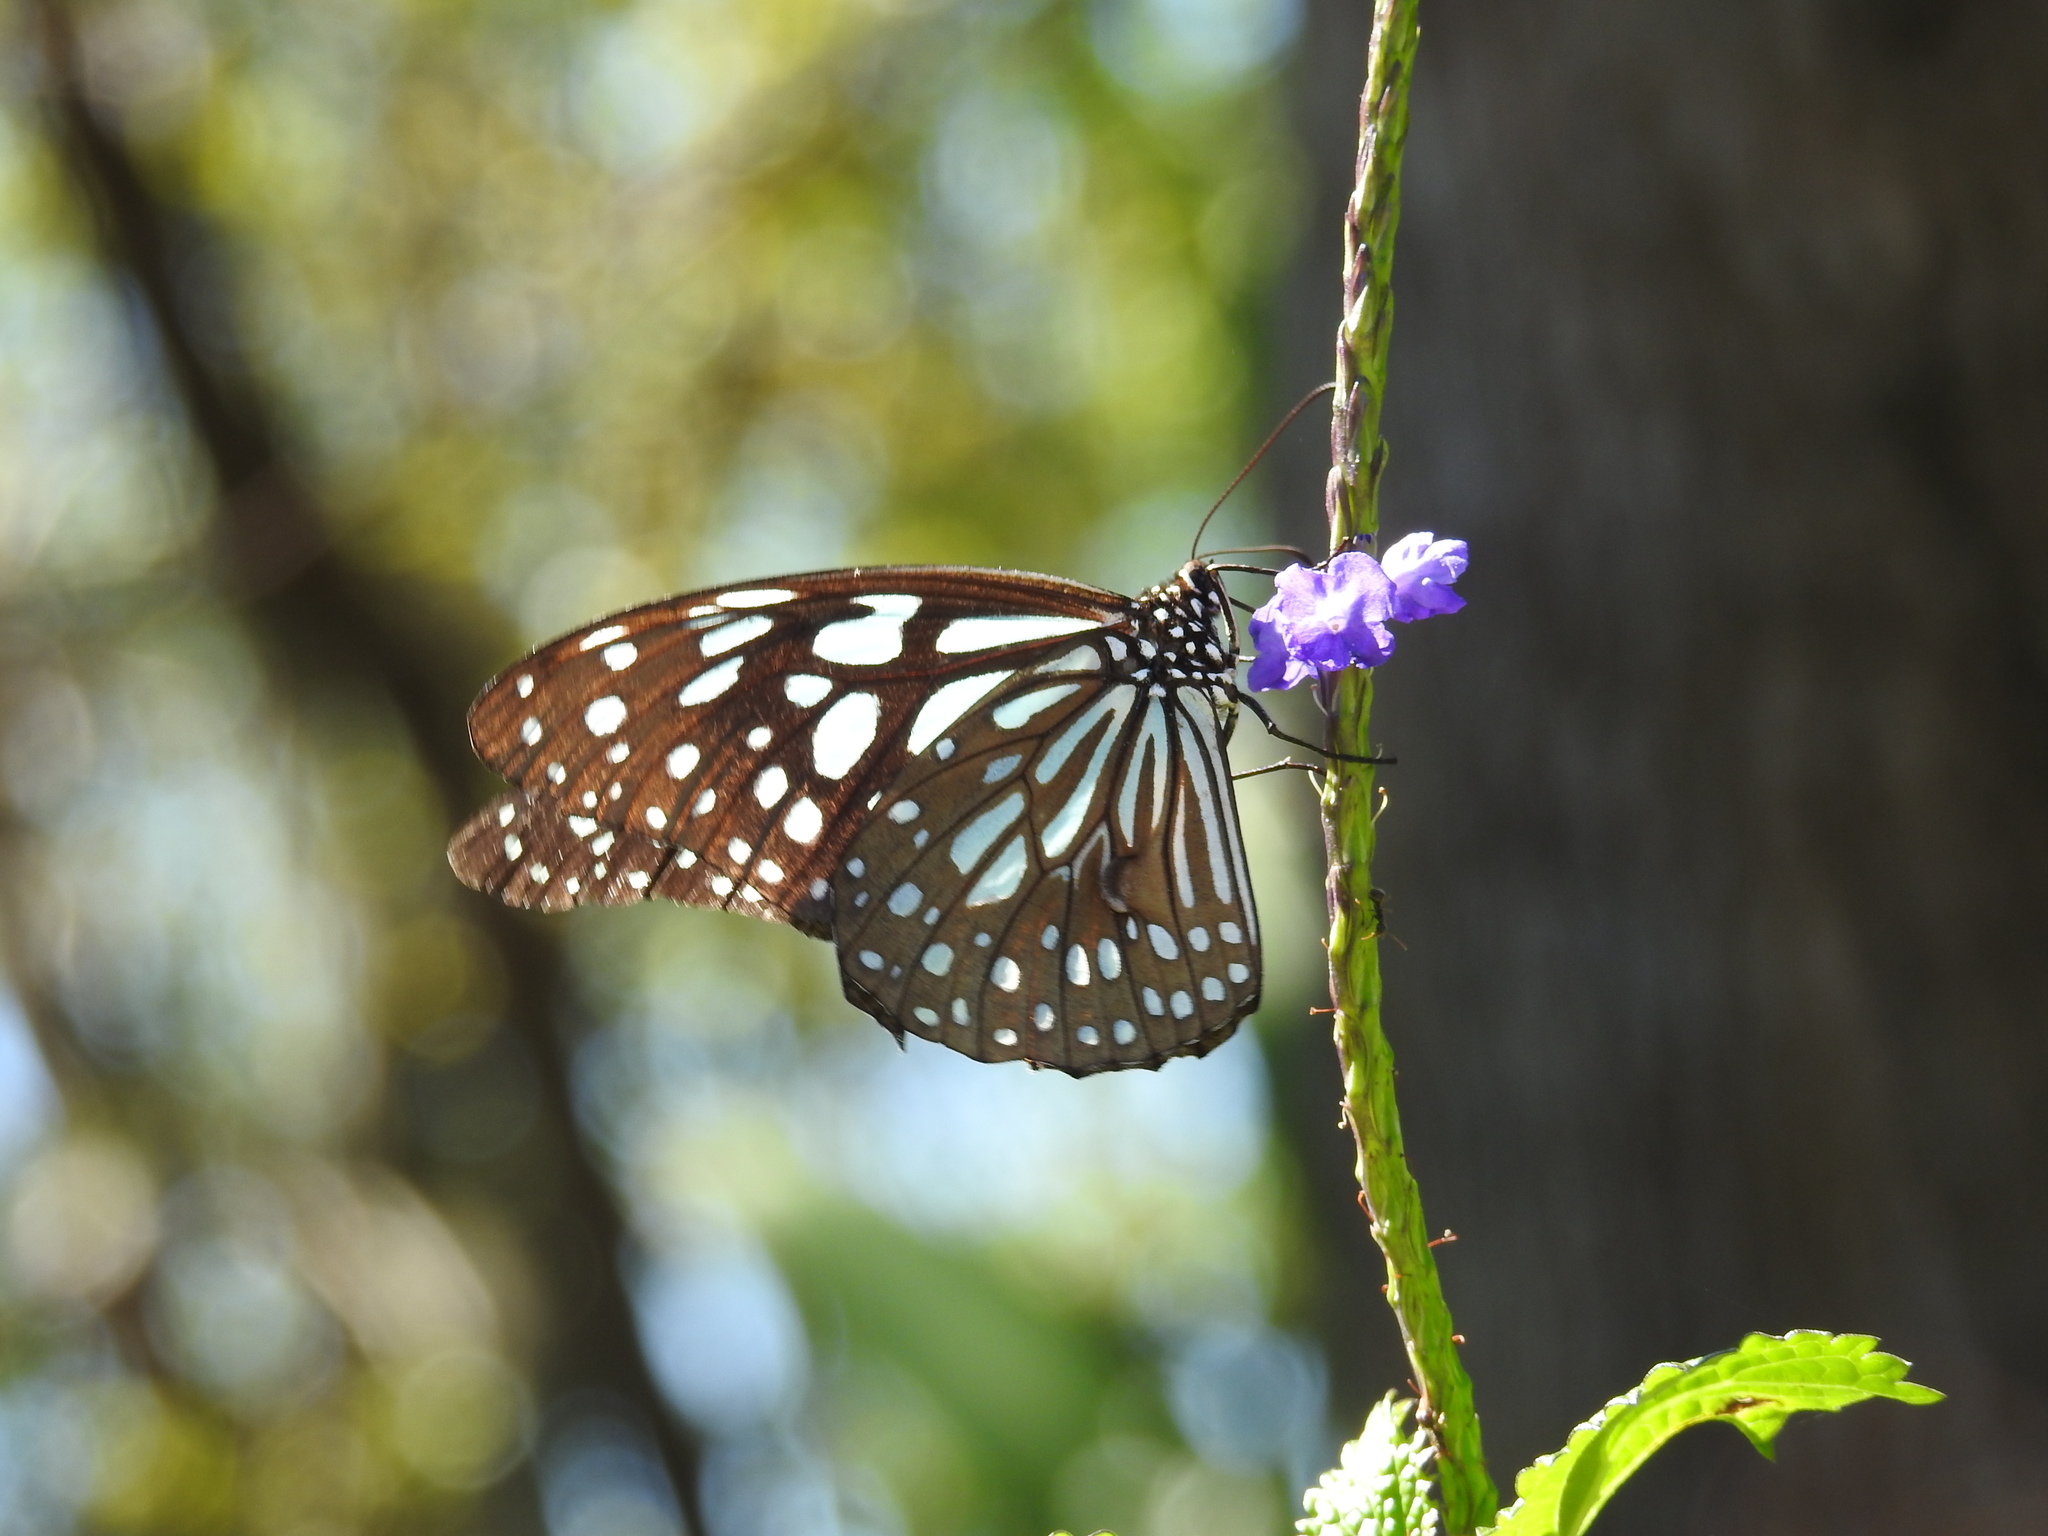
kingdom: Animalia
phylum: Arthropoda
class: Insecta
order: Lepidoptera
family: Nymphalidae
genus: Tirumala
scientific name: Tirumala limniace
